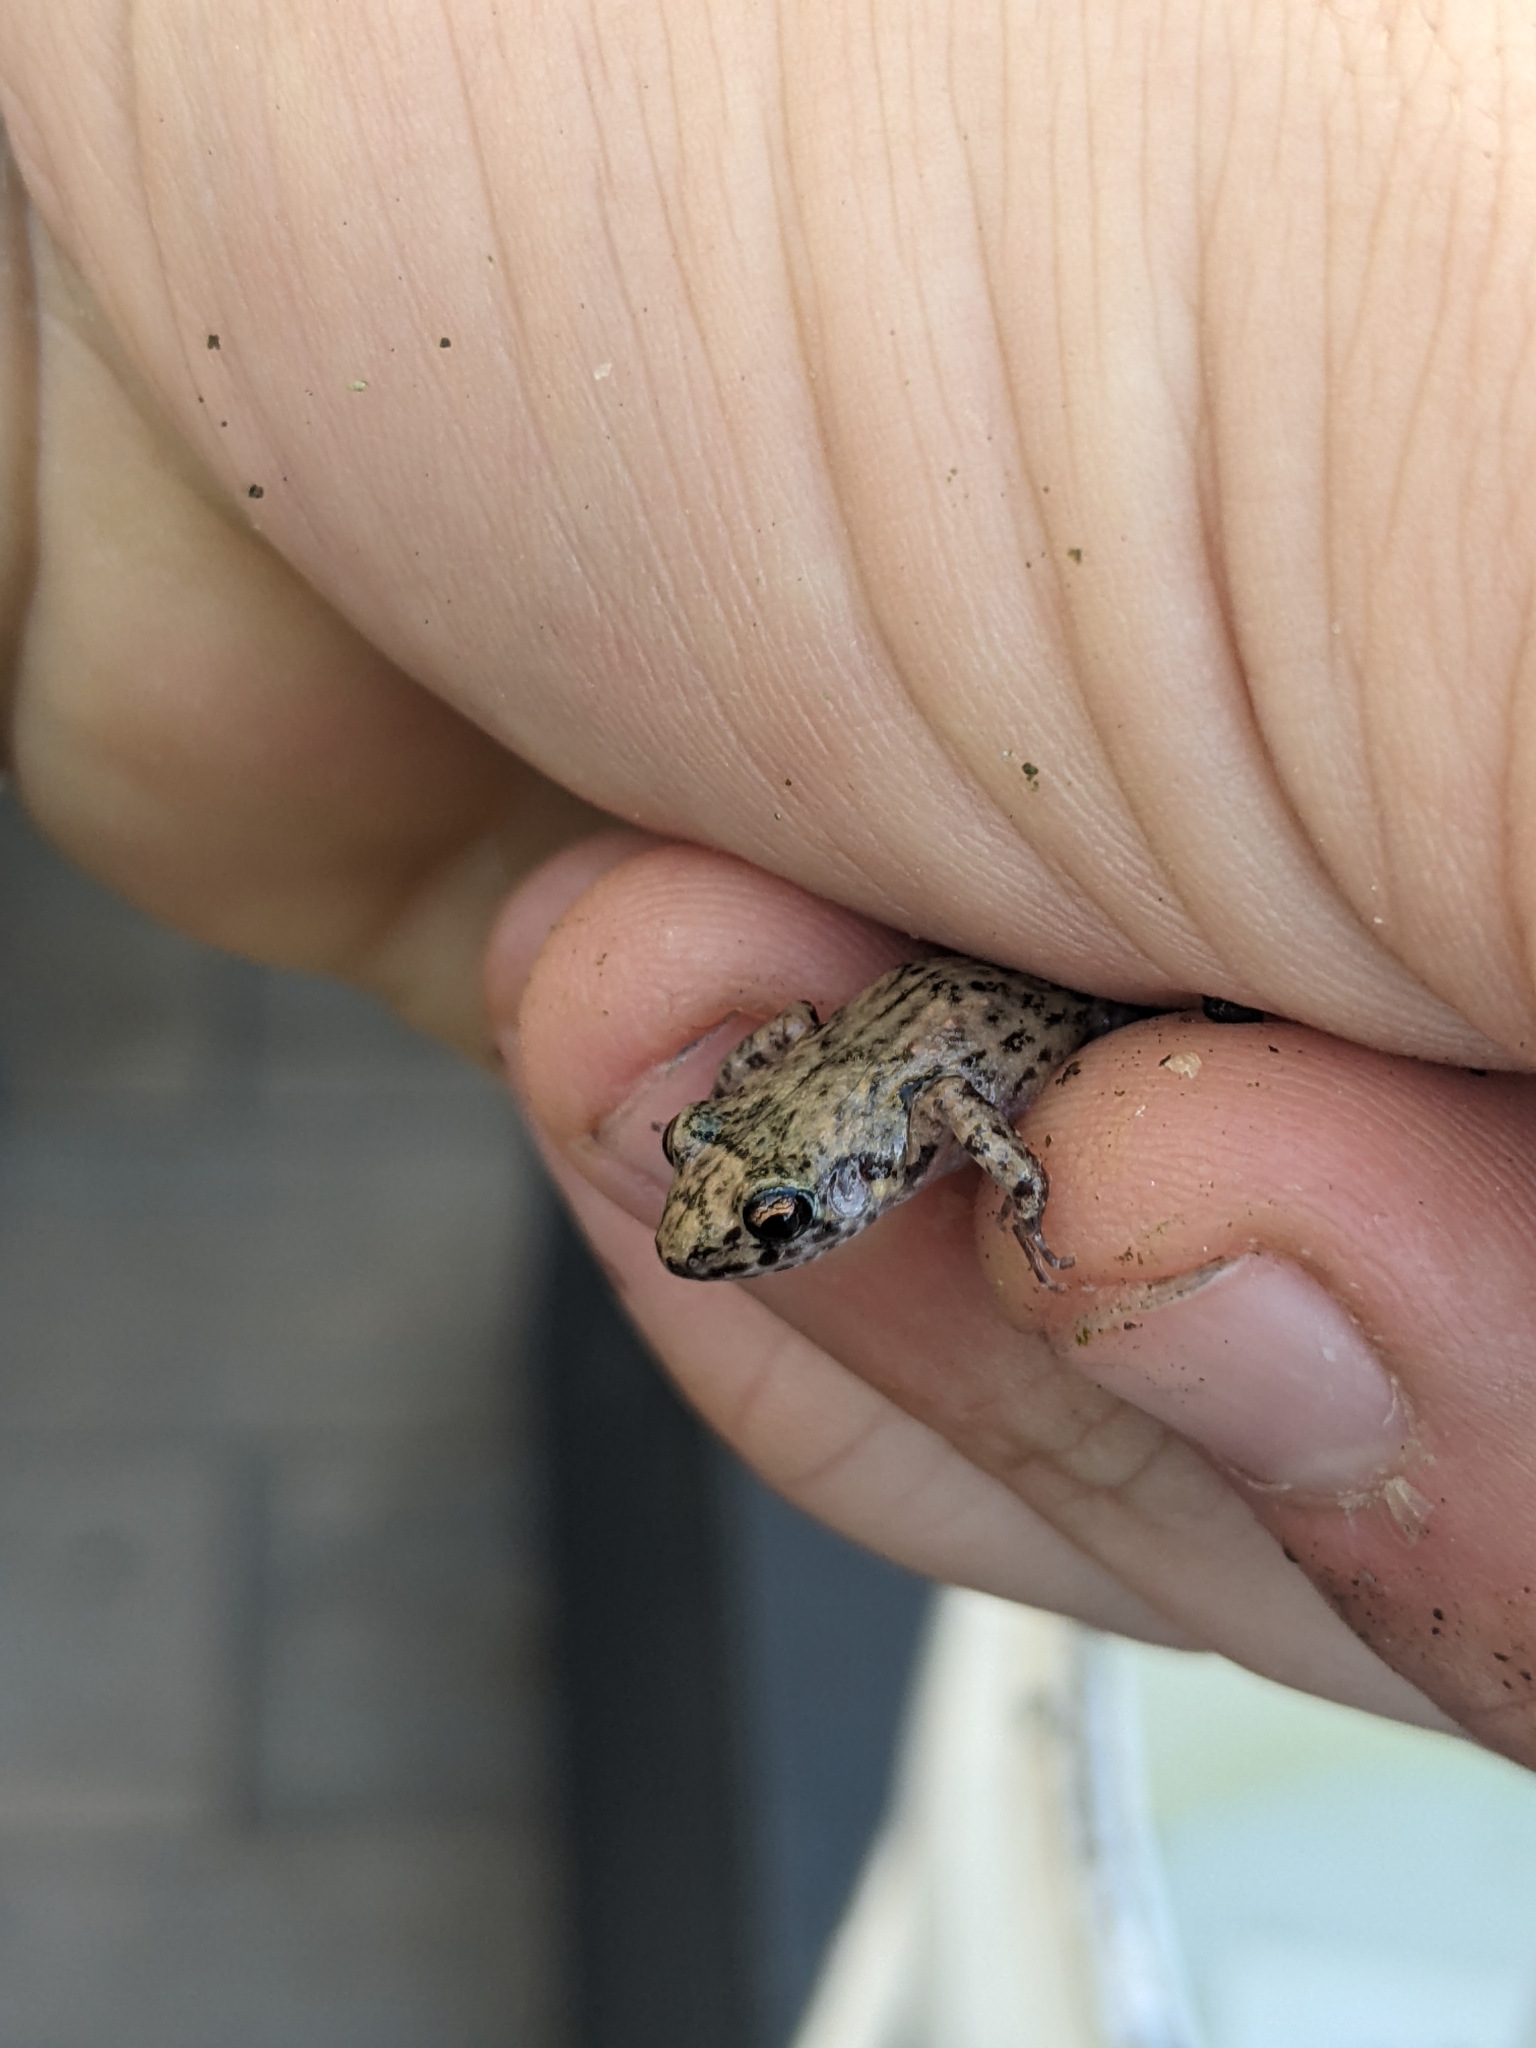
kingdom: Animalia
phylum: Chordata
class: Amphibia
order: Anura
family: Eleutherodactylidae
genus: Eleutherodactylus
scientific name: Eleutherodactylus planirostris
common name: Greenhouse frog
